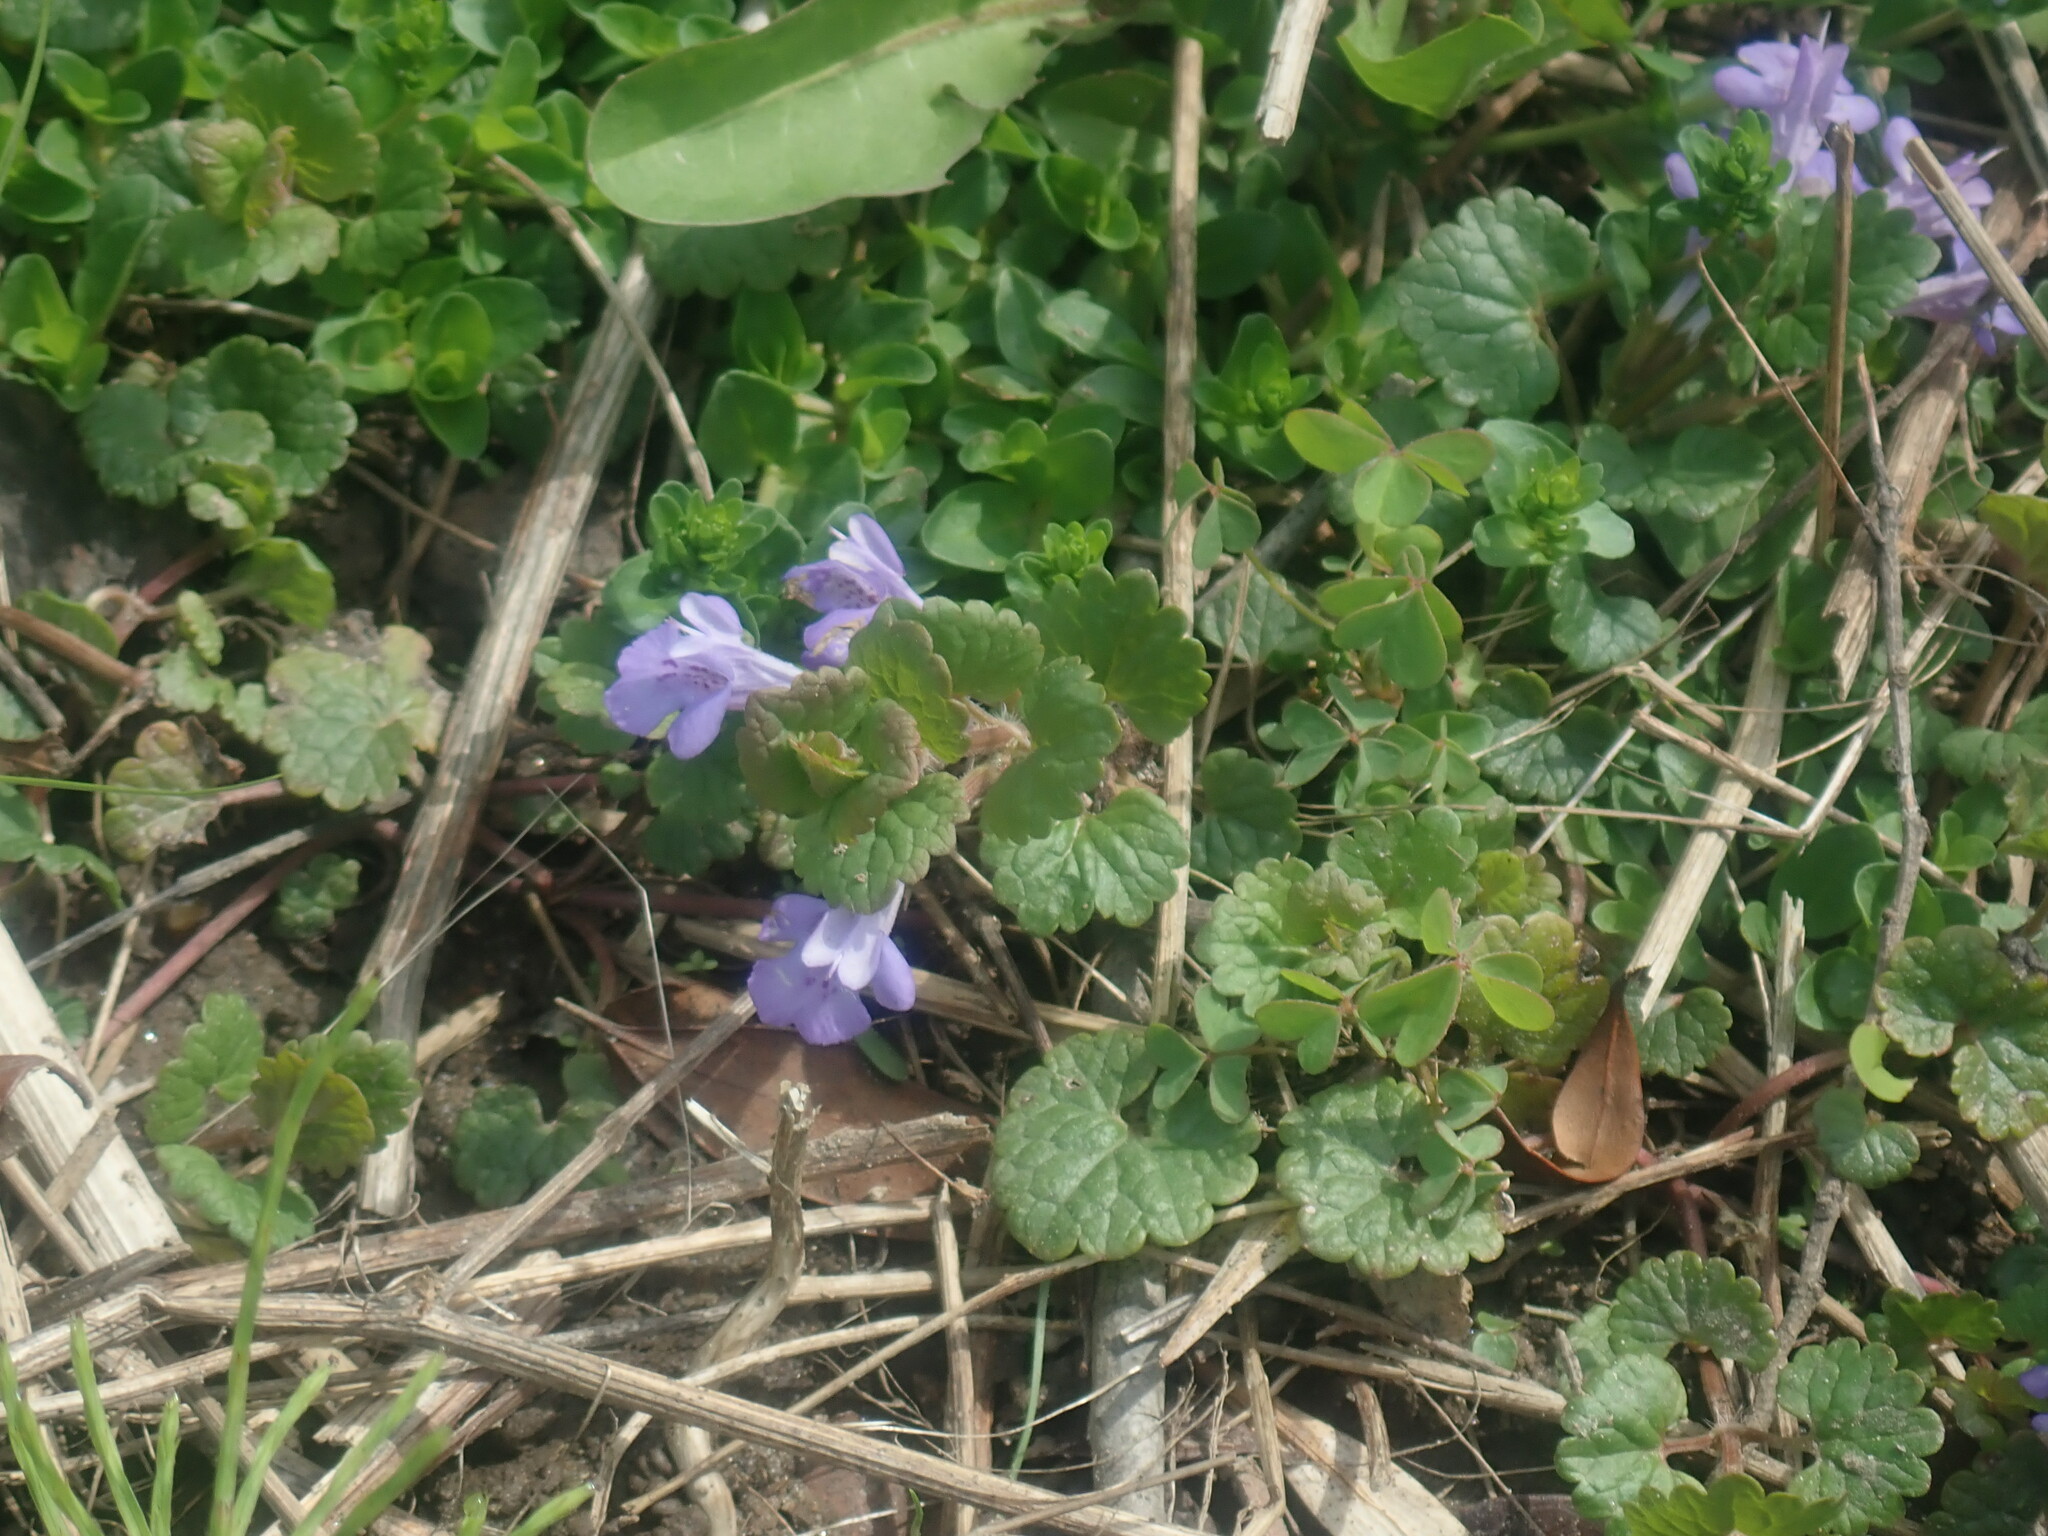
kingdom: Plantae
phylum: Tracheophyta
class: Magnoliopsida
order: Lamiales
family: Lamiaceae
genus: Glechoma
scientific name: Glechoma hederacea
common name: Ground ivy
